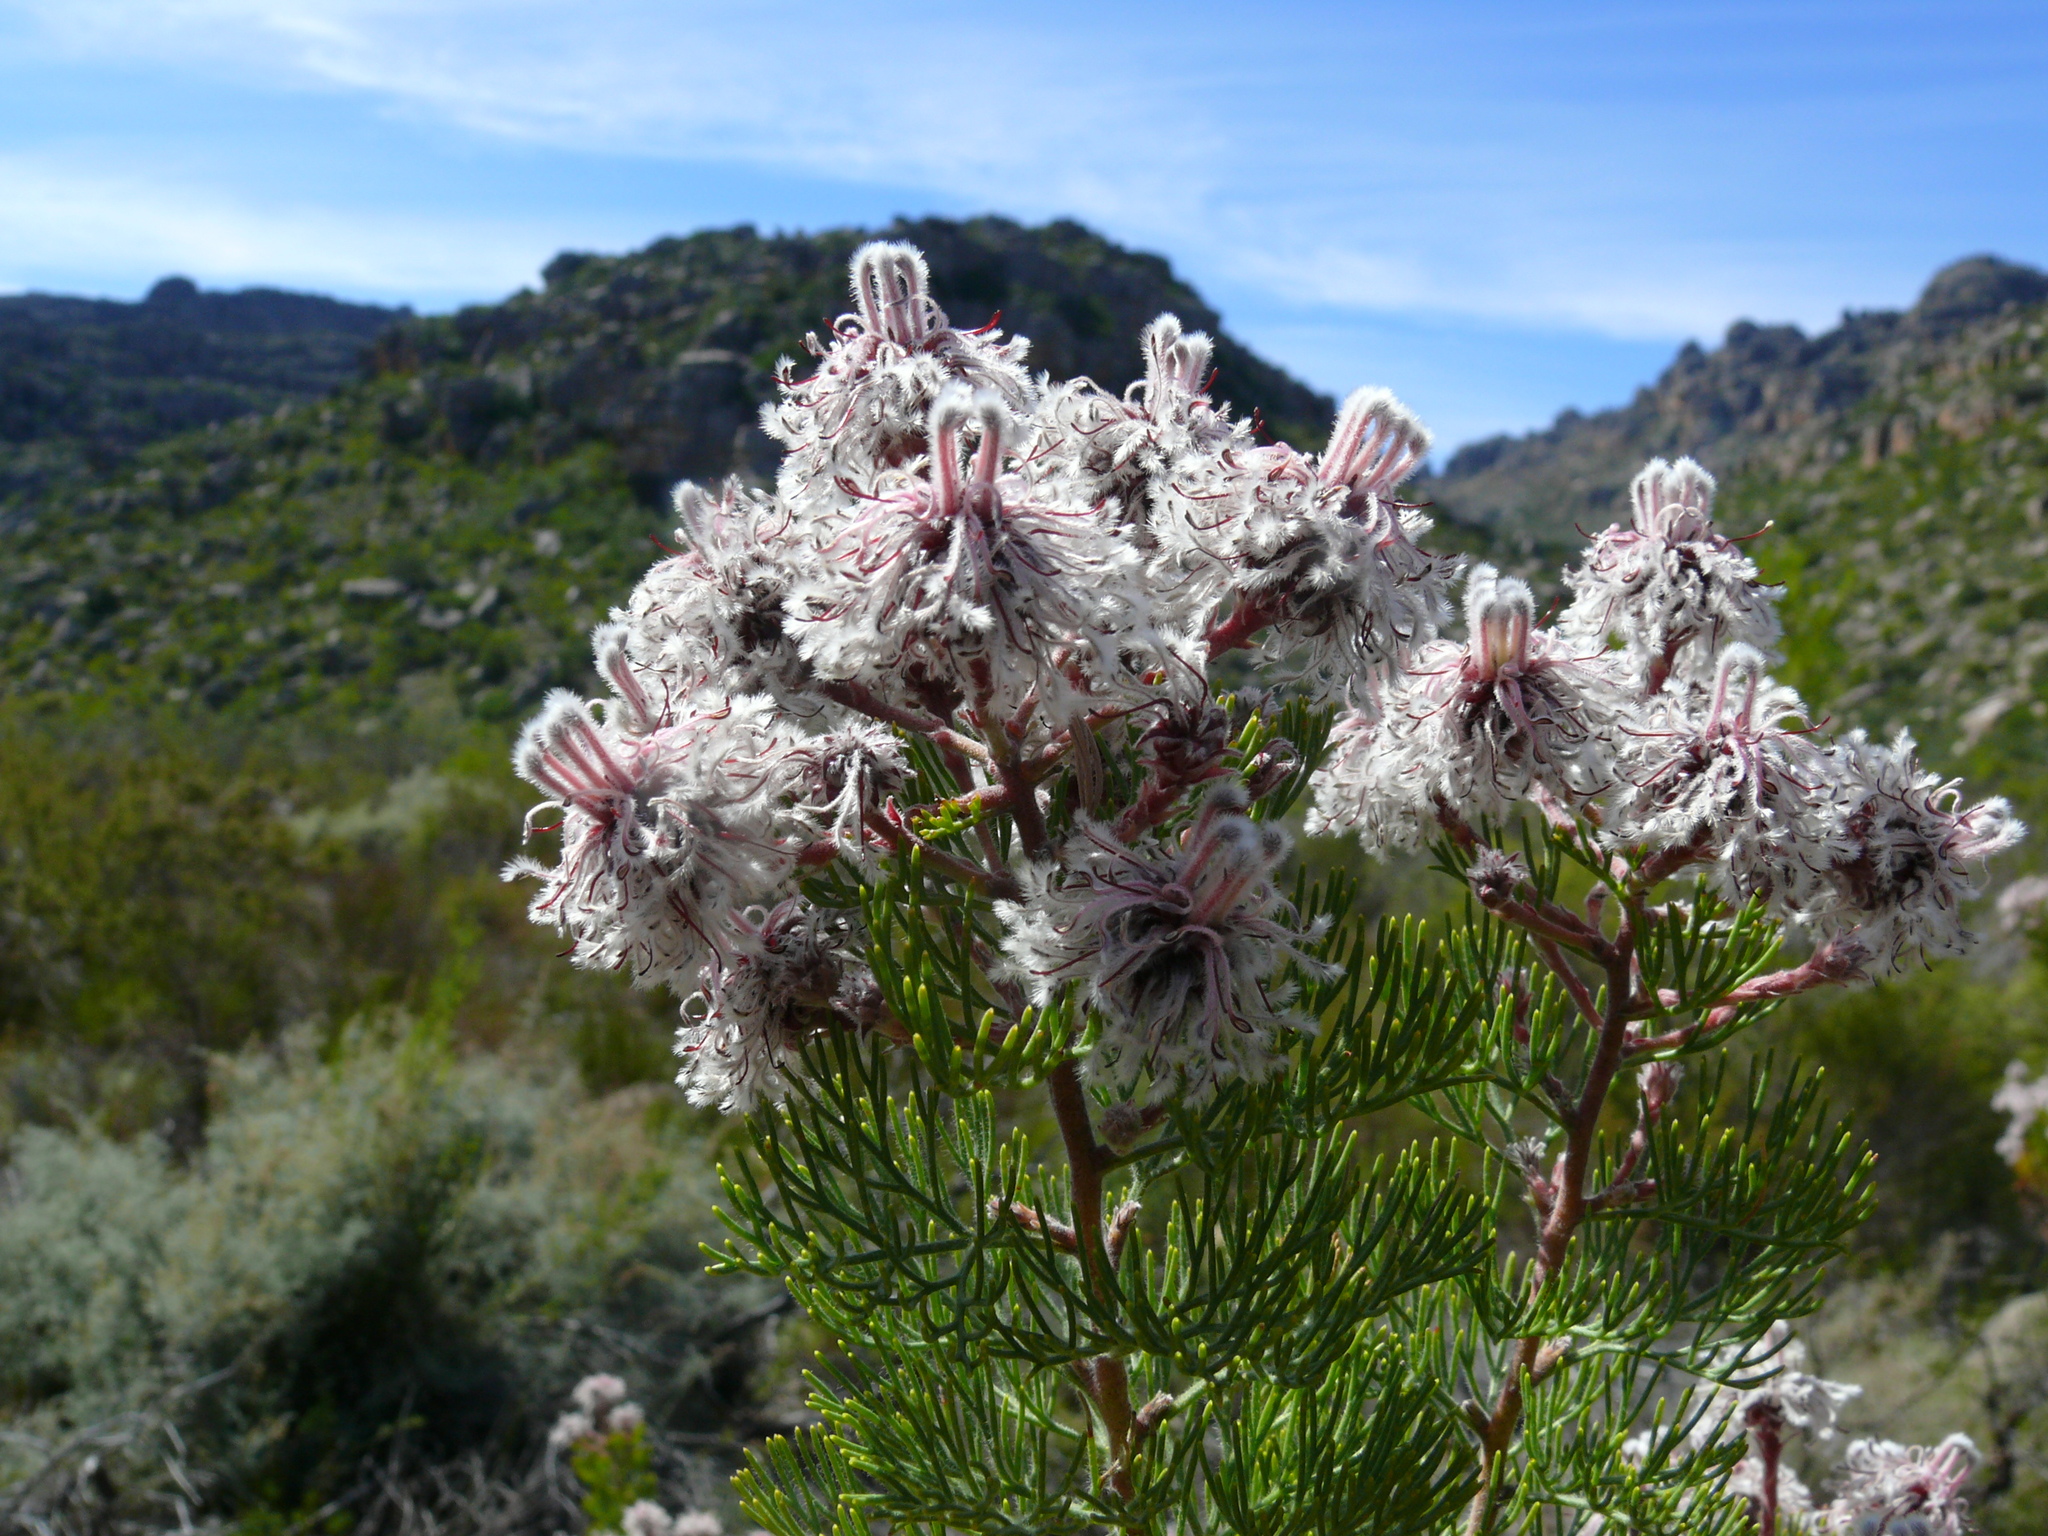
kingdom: Plantae
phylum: Tracheophyta
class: Magnoliopsida
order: Proteales
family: Proteaceae
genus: Serruria
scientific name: Serruria aitonii
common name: Marshmallow spiderhead
